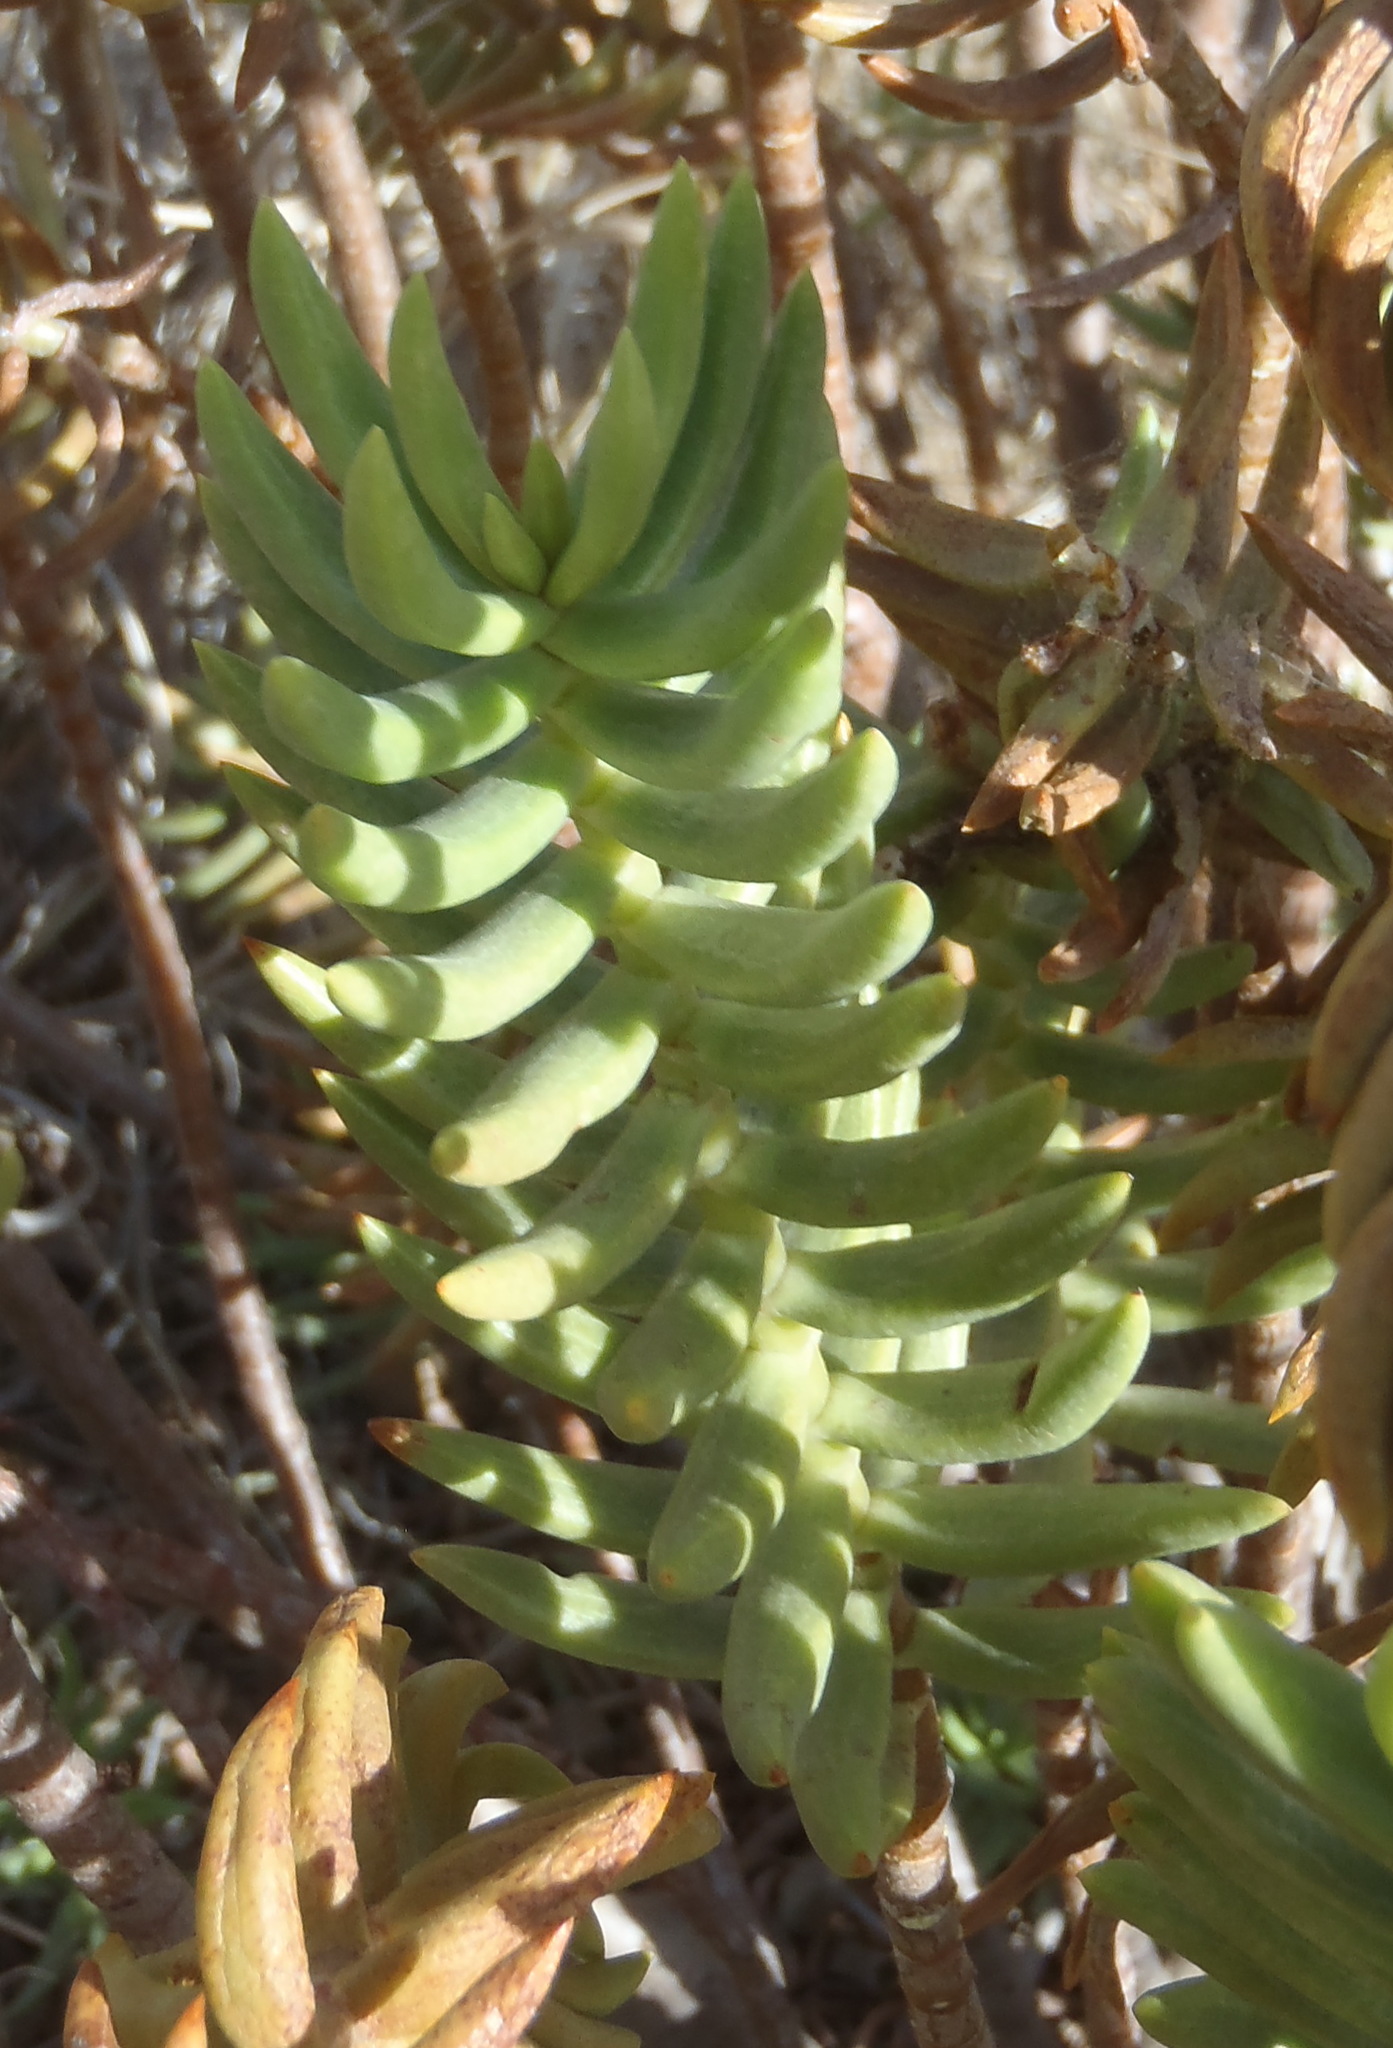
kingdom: Plantae
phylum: Tracheophyta
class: Magnoliopsida
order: Saxifragales
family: Crassulaceae
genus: Crassula
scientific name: Crassula tetragona
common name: Pygmyweed
